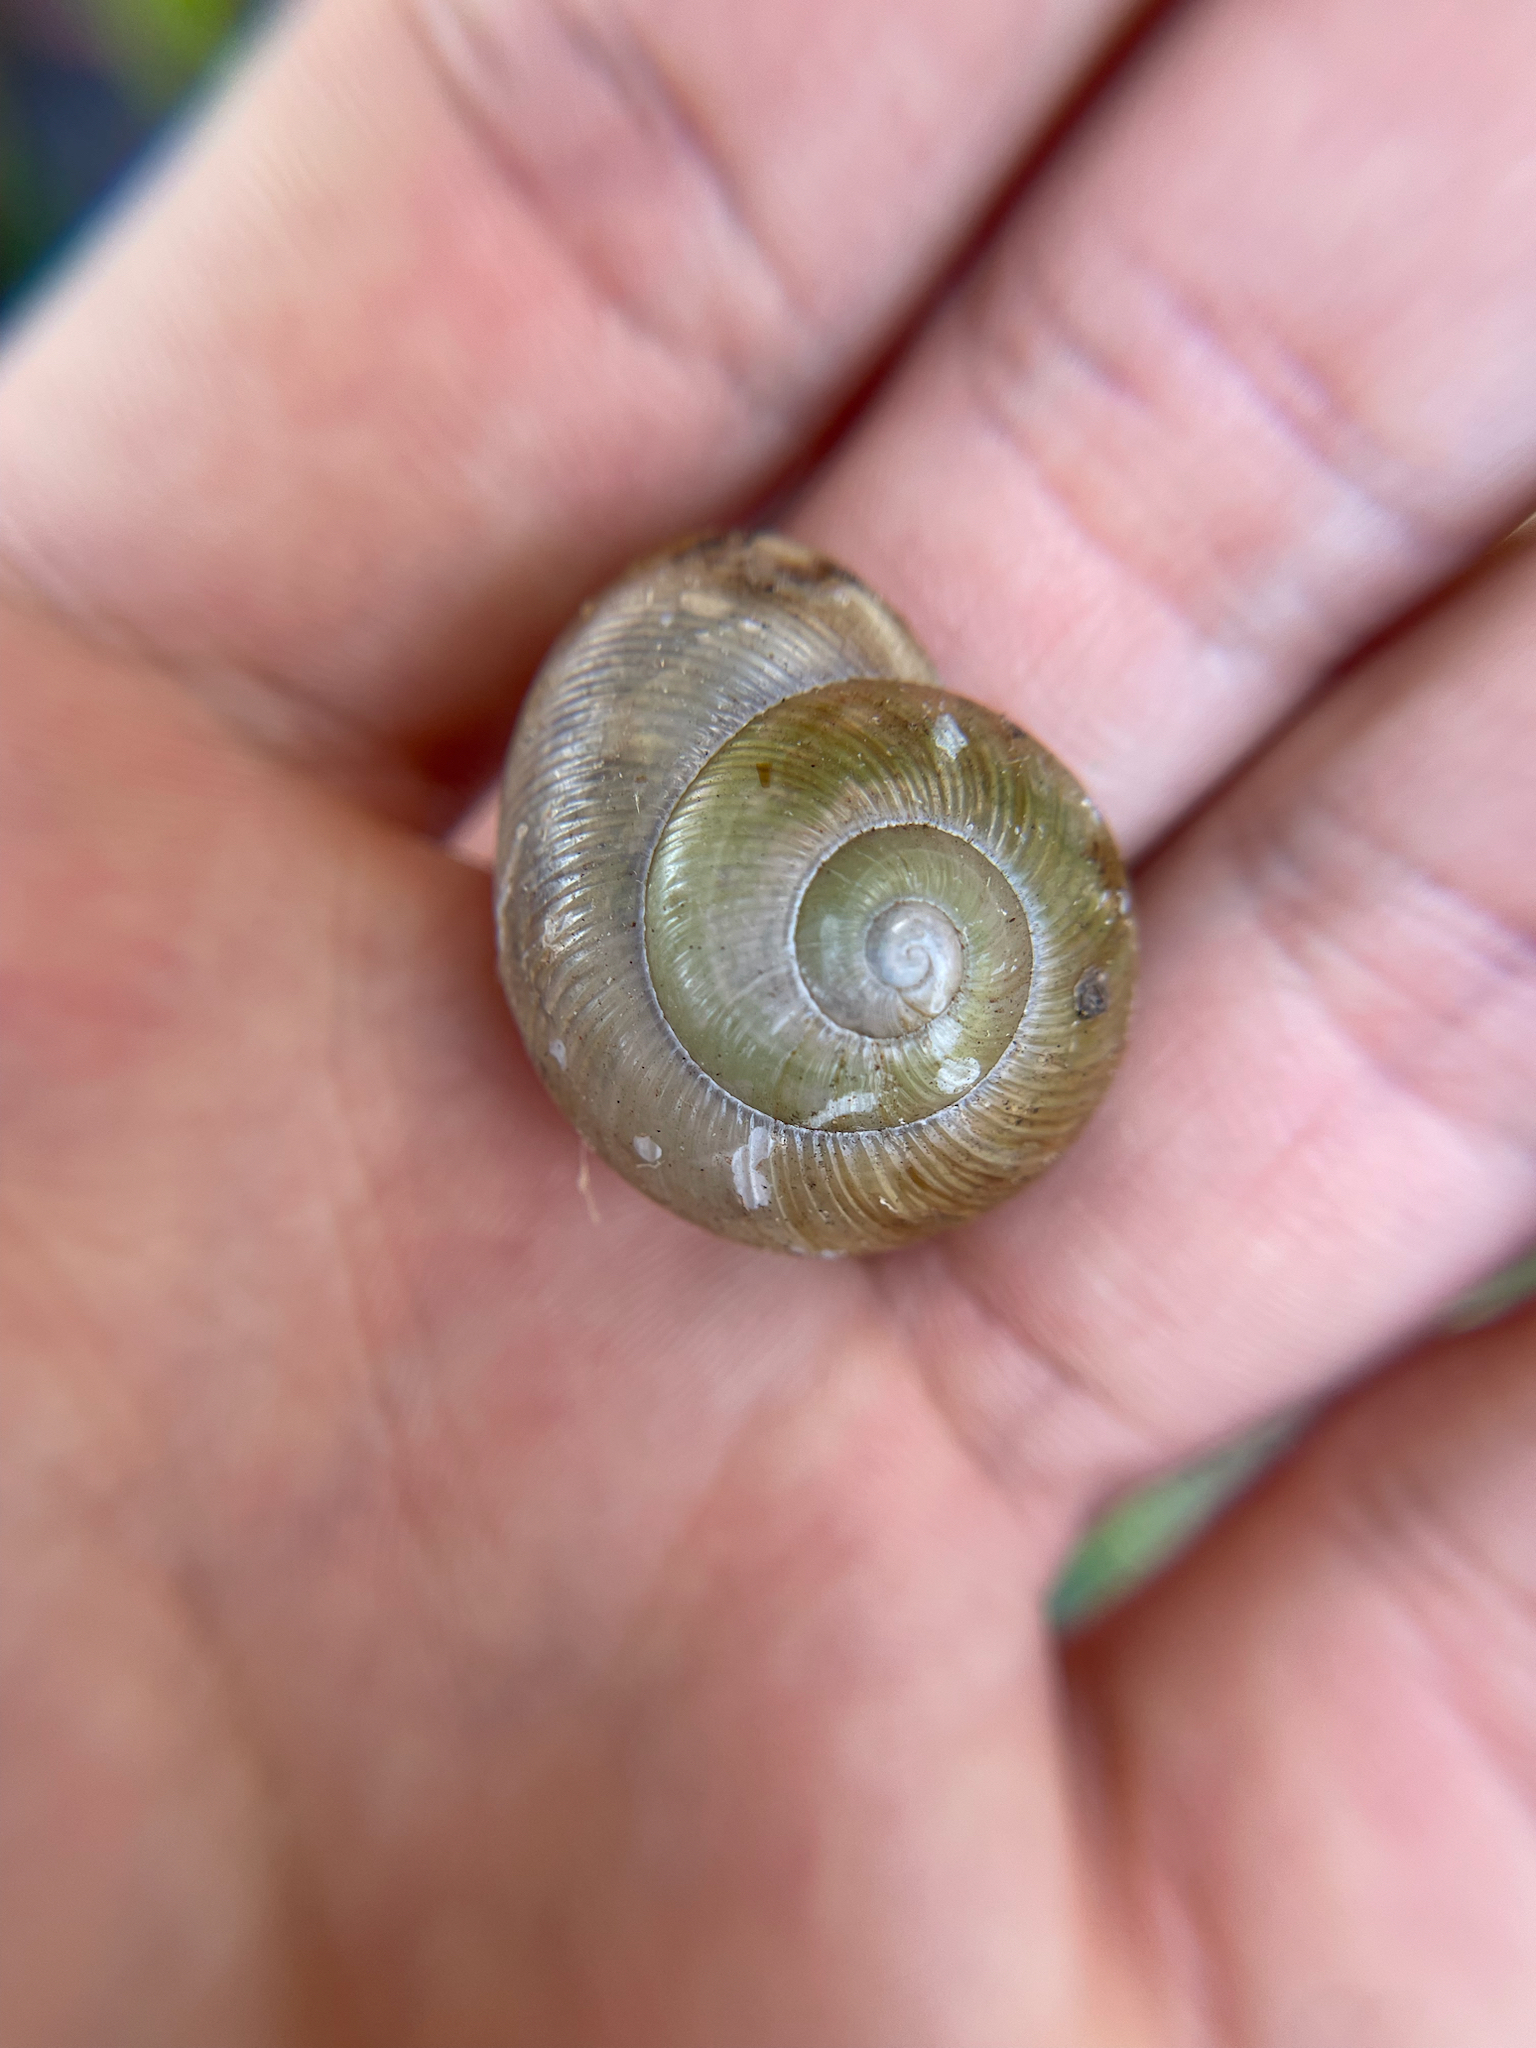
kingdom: Animalia
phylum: Mollusca
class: Gastropoda
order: Stylommatophora
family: Zachrysiidae
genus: Zachrysia
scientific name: Zachrysia provisoria
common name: Garden zachrysia
